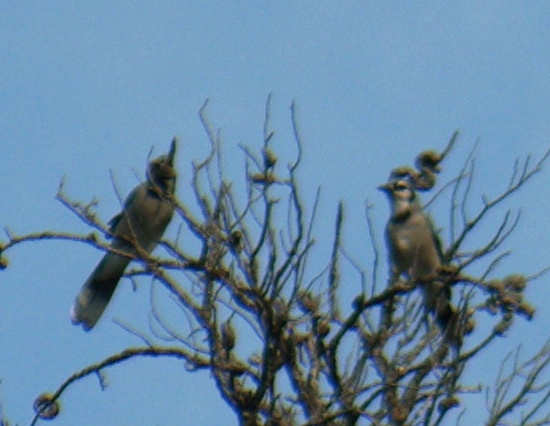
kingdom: Animalia
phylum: Chordata
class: Aves
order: Passeriformes
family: Corvidae
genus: Cyanocitta
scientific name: Cyanocitta cristata
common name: Blue jay
